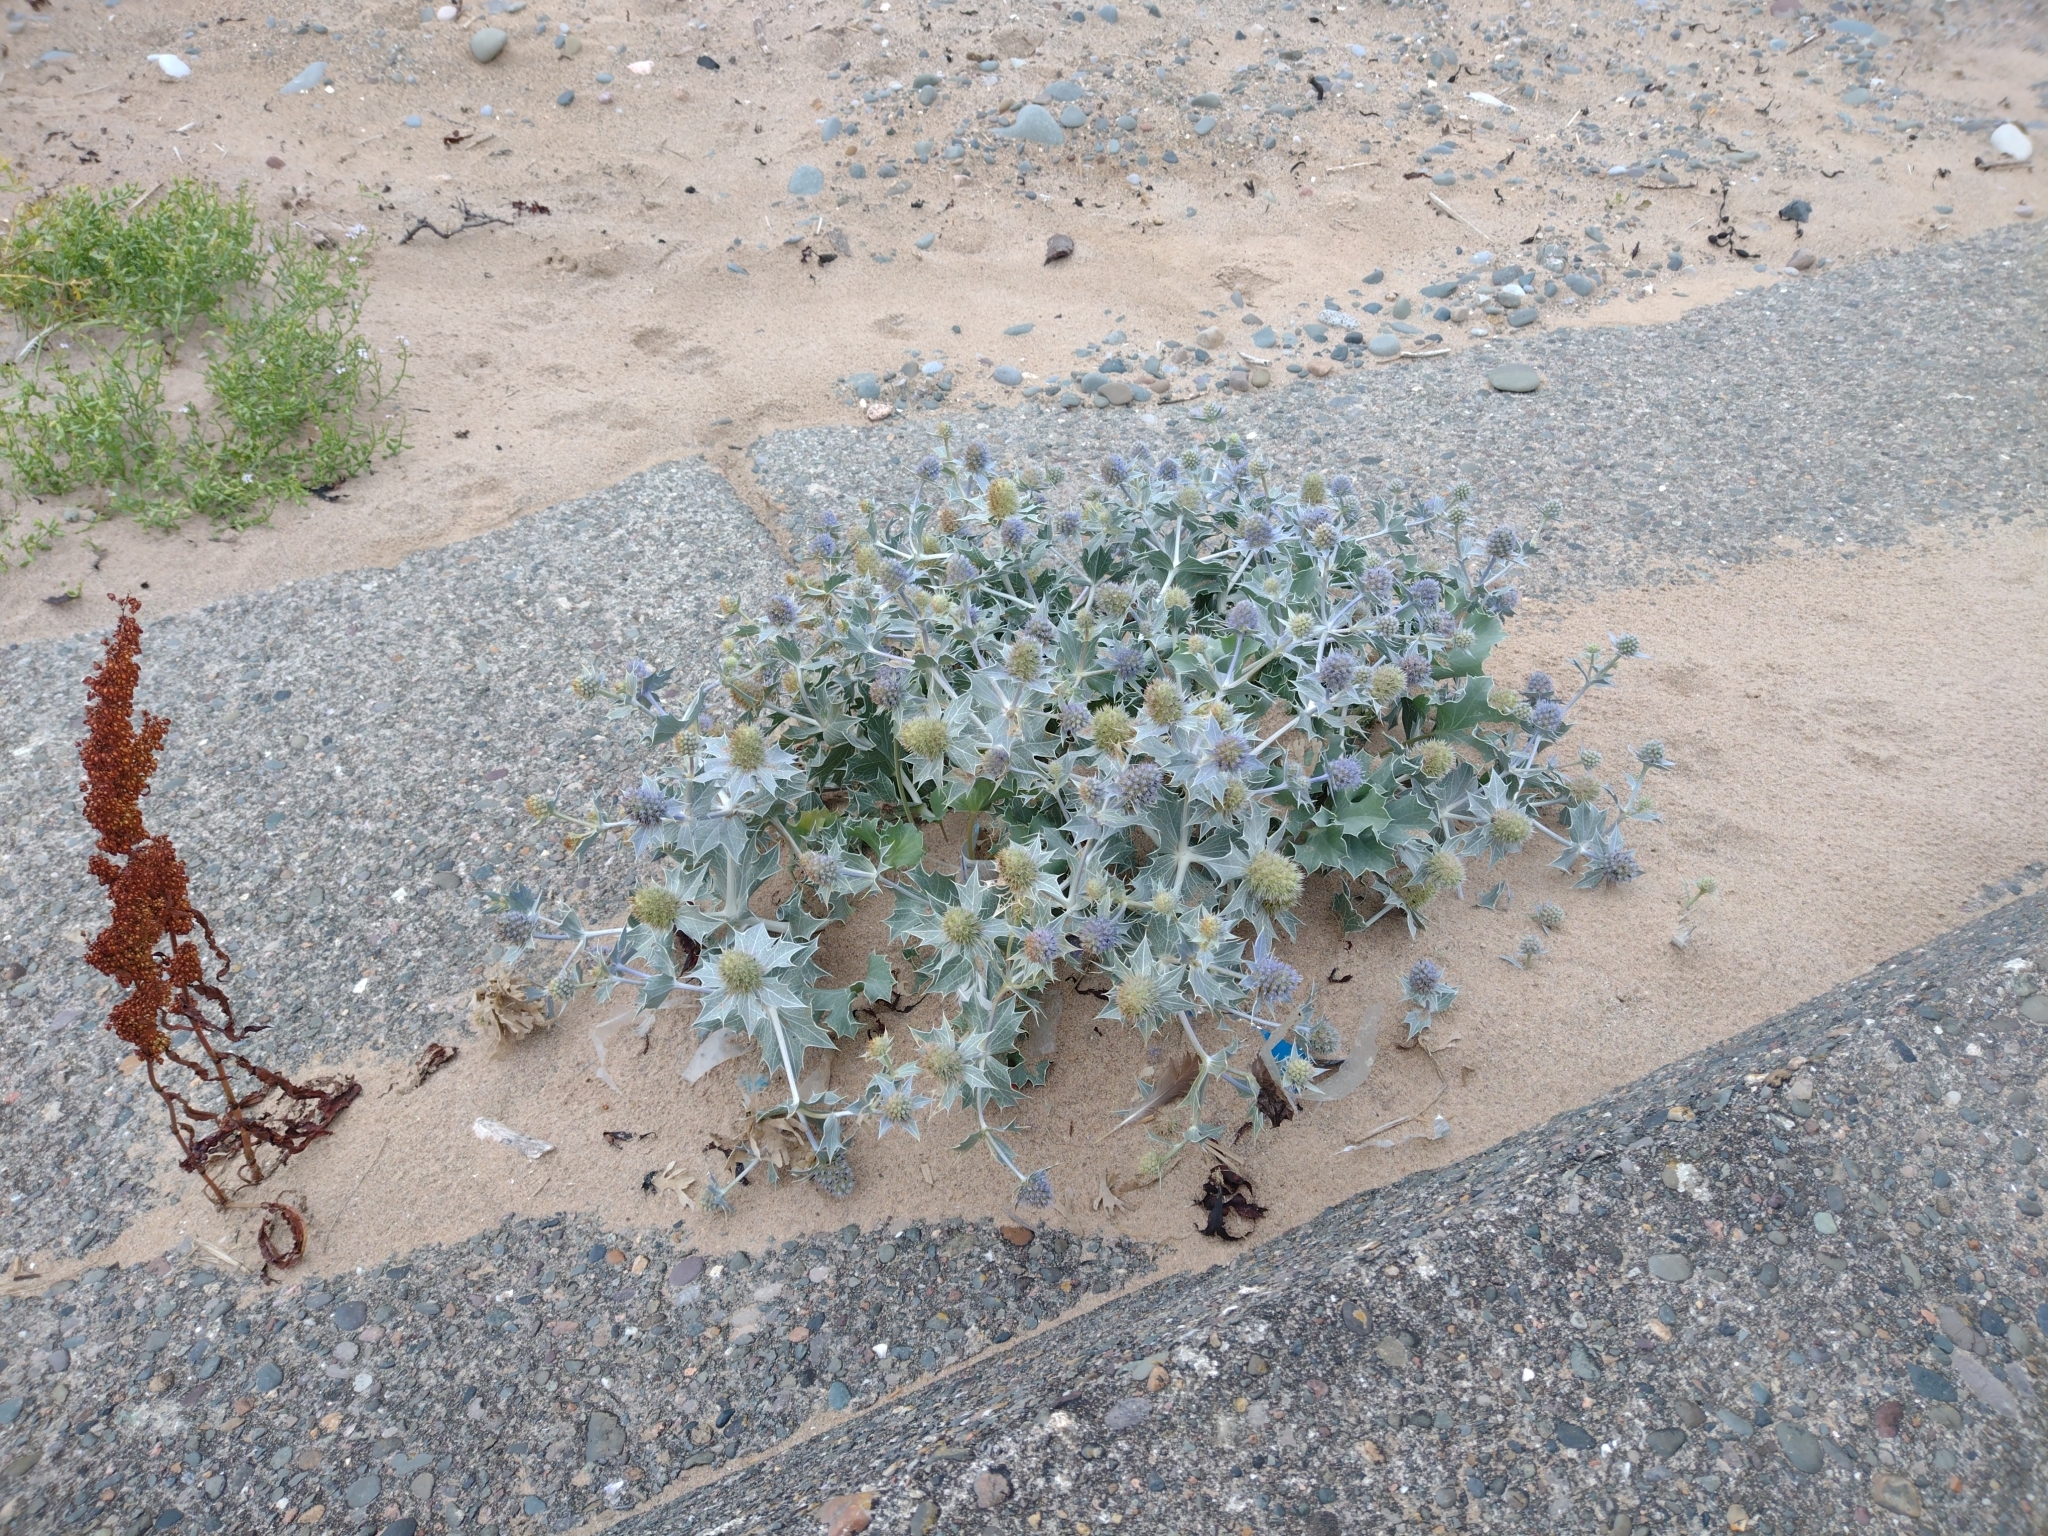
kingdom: Plantae
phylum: Tracheophyta
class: Magnoliopsida
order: Apiales
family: Apiaceae
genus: Eryngium
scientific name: Eryngium maritimum
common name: Sea-holly
